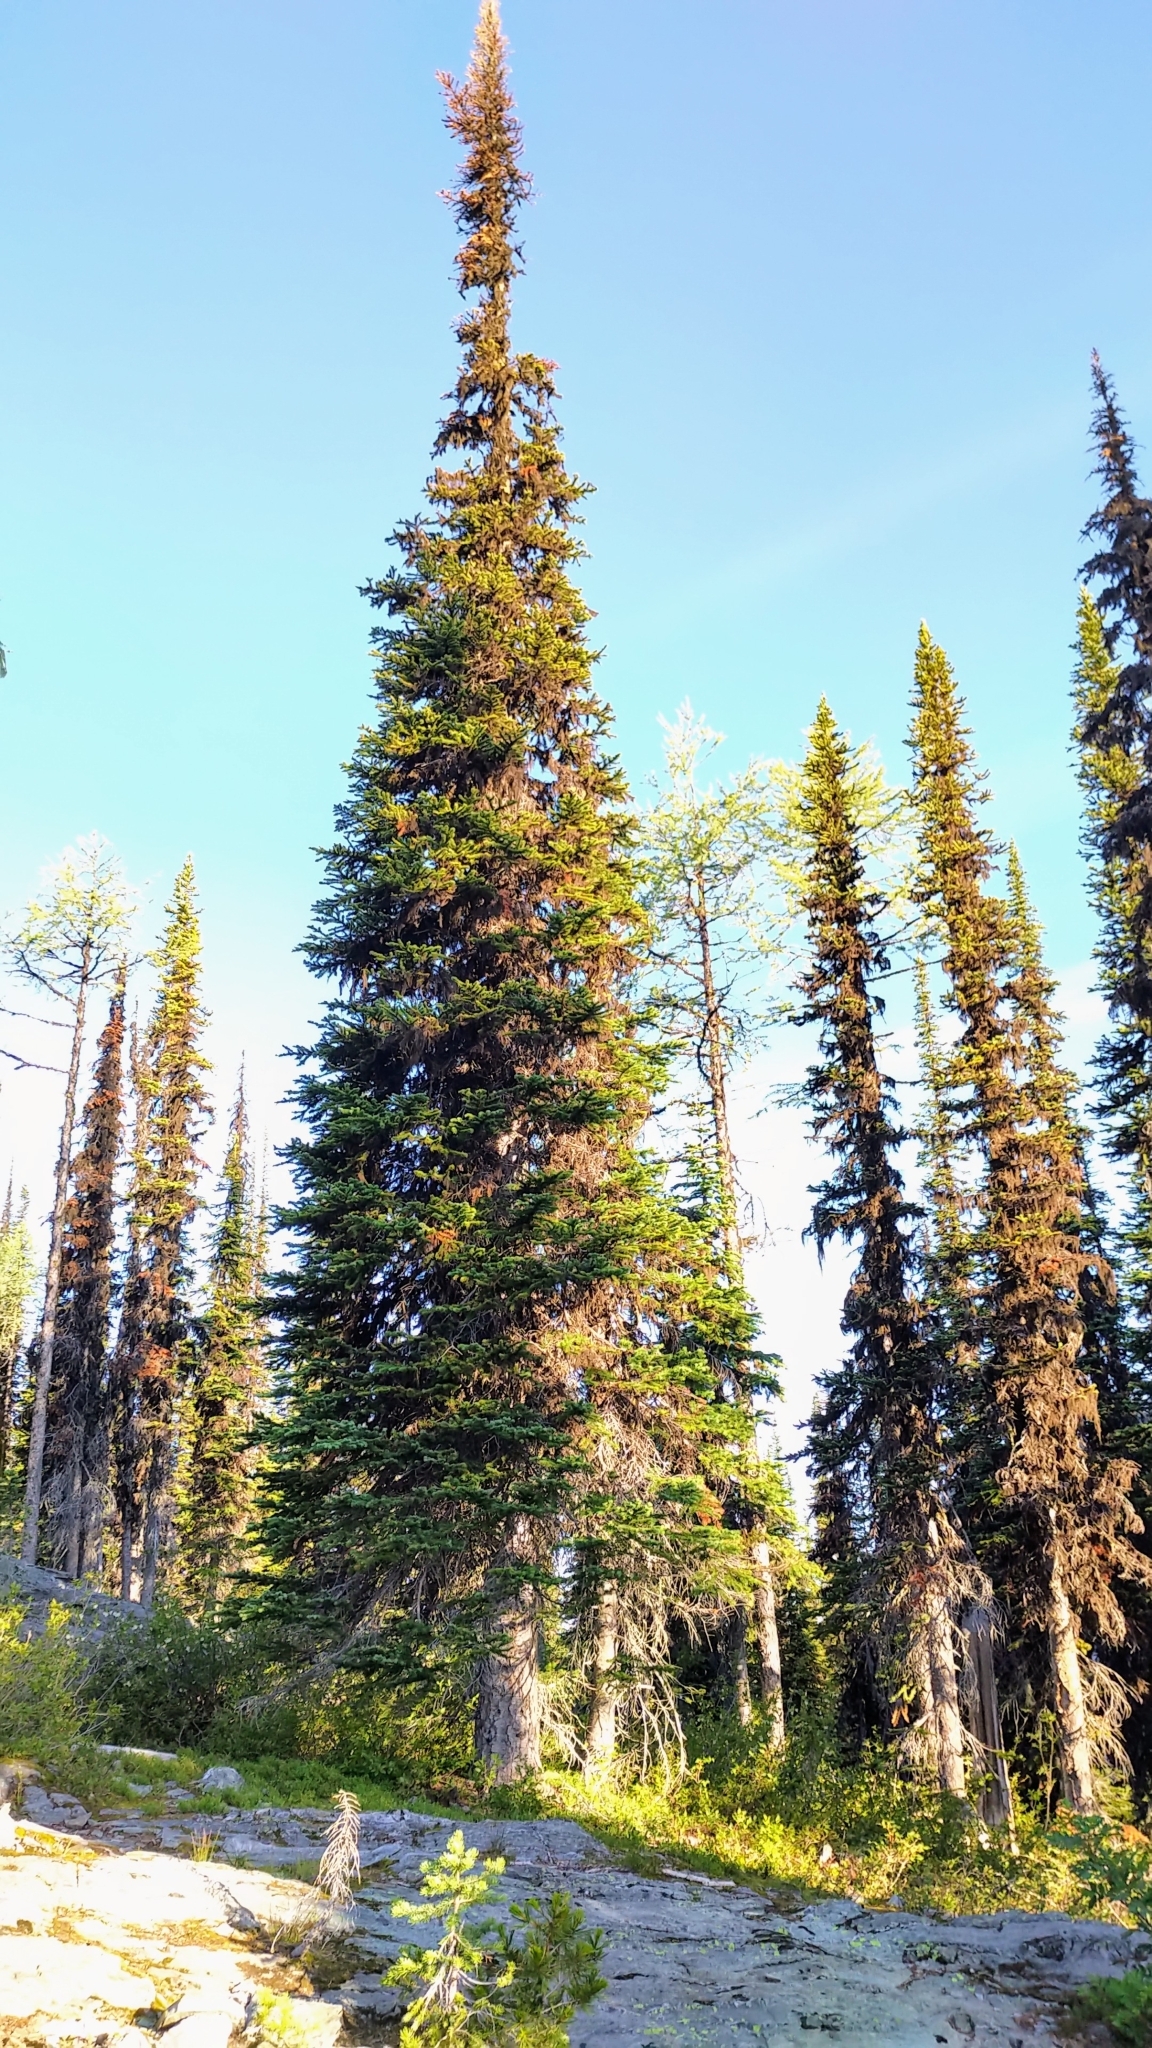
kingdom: Plantae
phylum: Tracheophyta
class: Pinopsida
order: Pinales
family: Pinaceae
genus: Abies
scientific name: Abies lasiocarpa
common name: Subalpine fir
